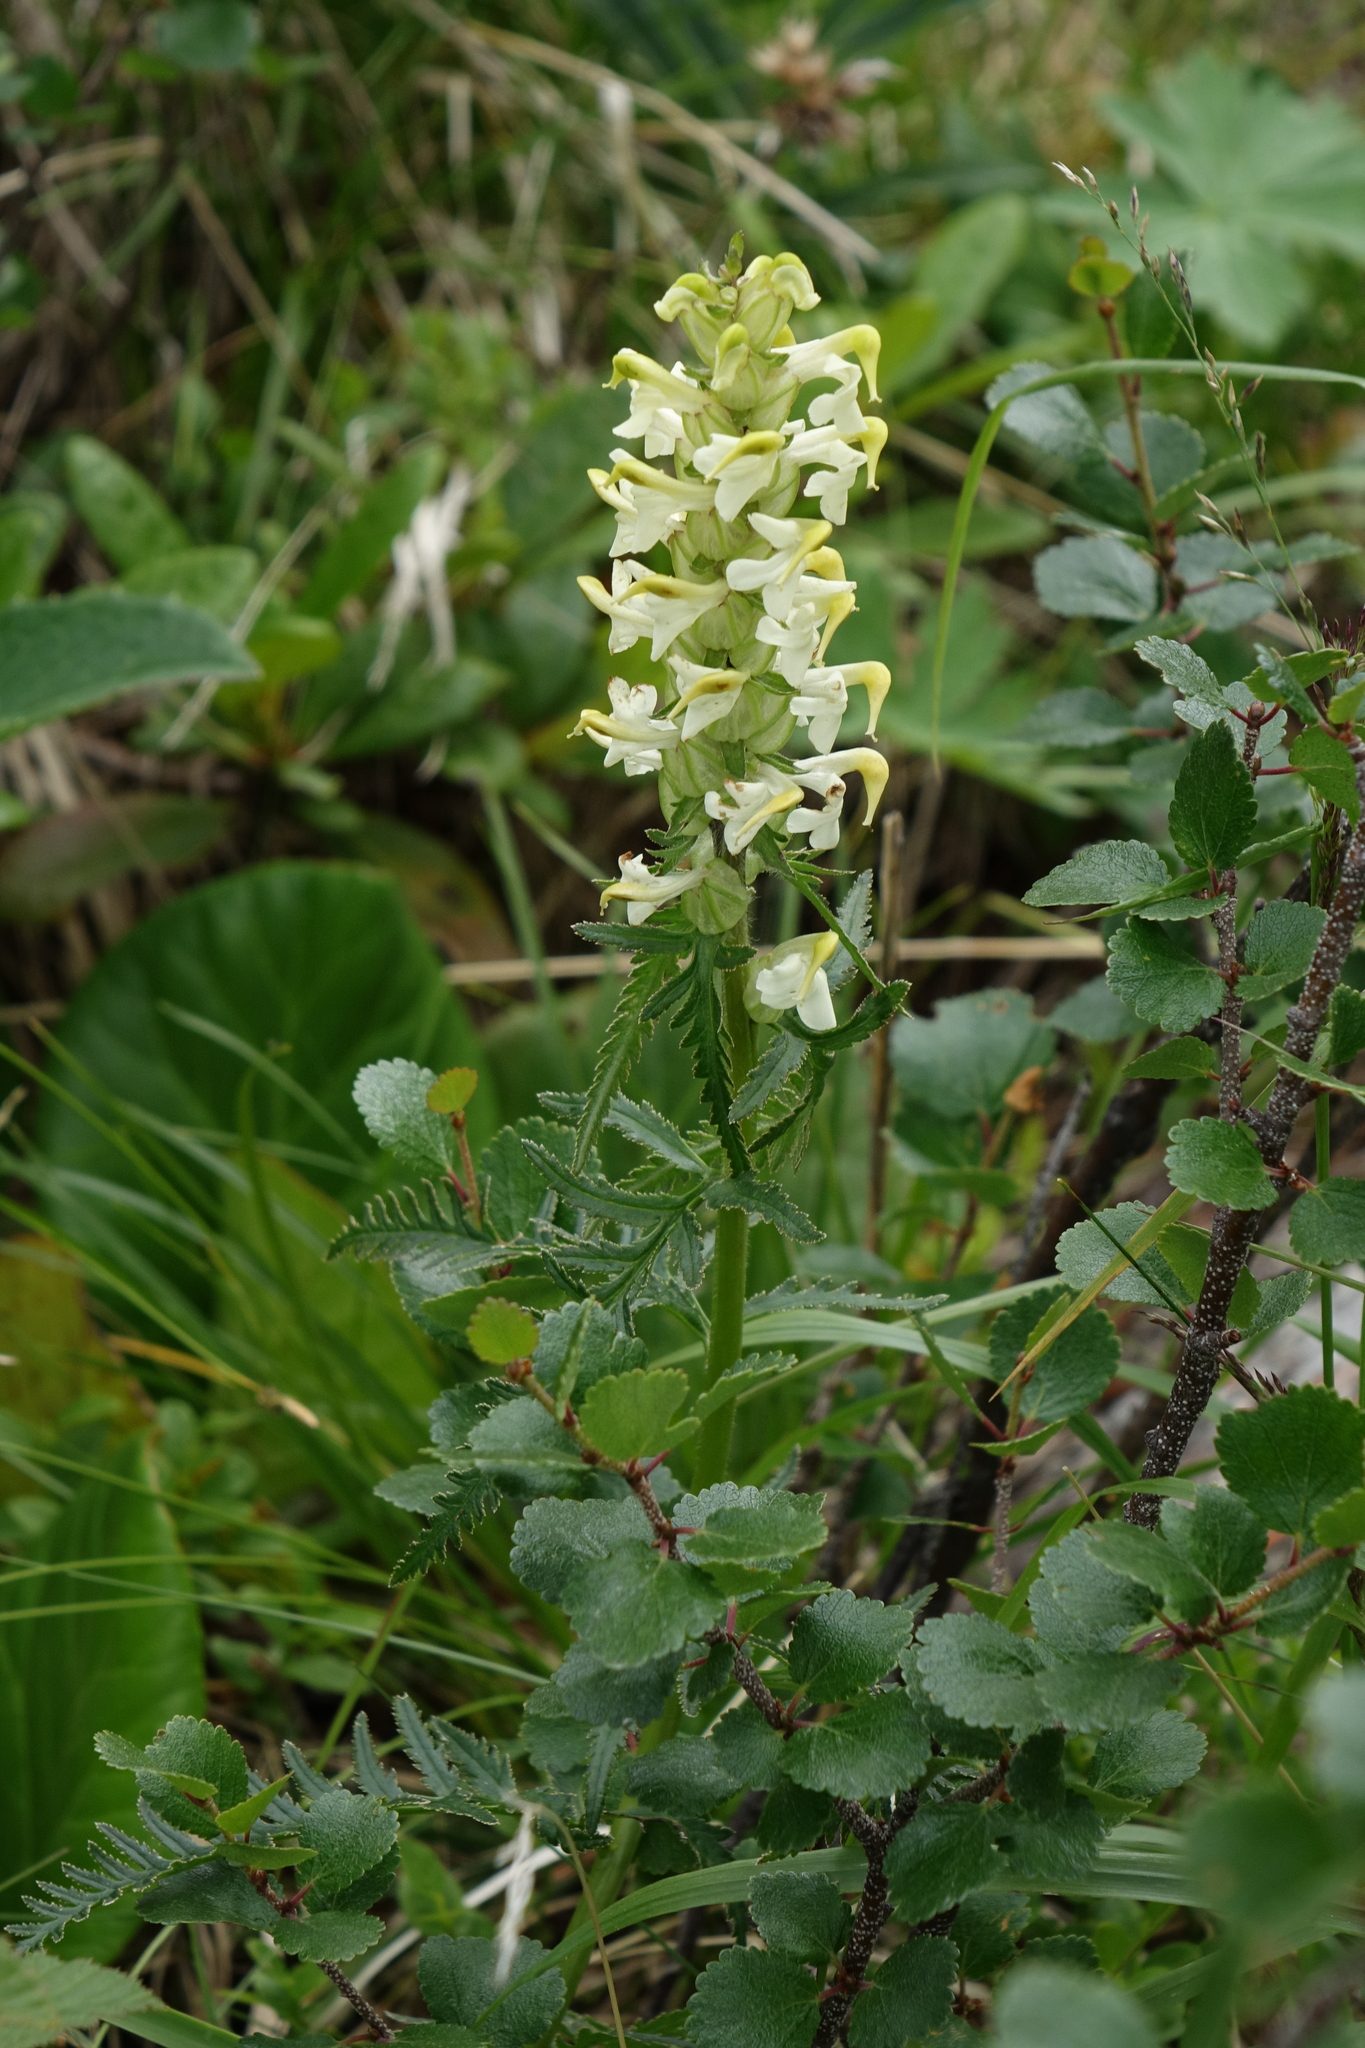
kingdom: Plantae
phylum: Tracheophyta
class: Magnoliopsida
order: Lamiales
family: Orobanchaceae
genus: Pedicularis
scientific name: Pedicularis compacta
